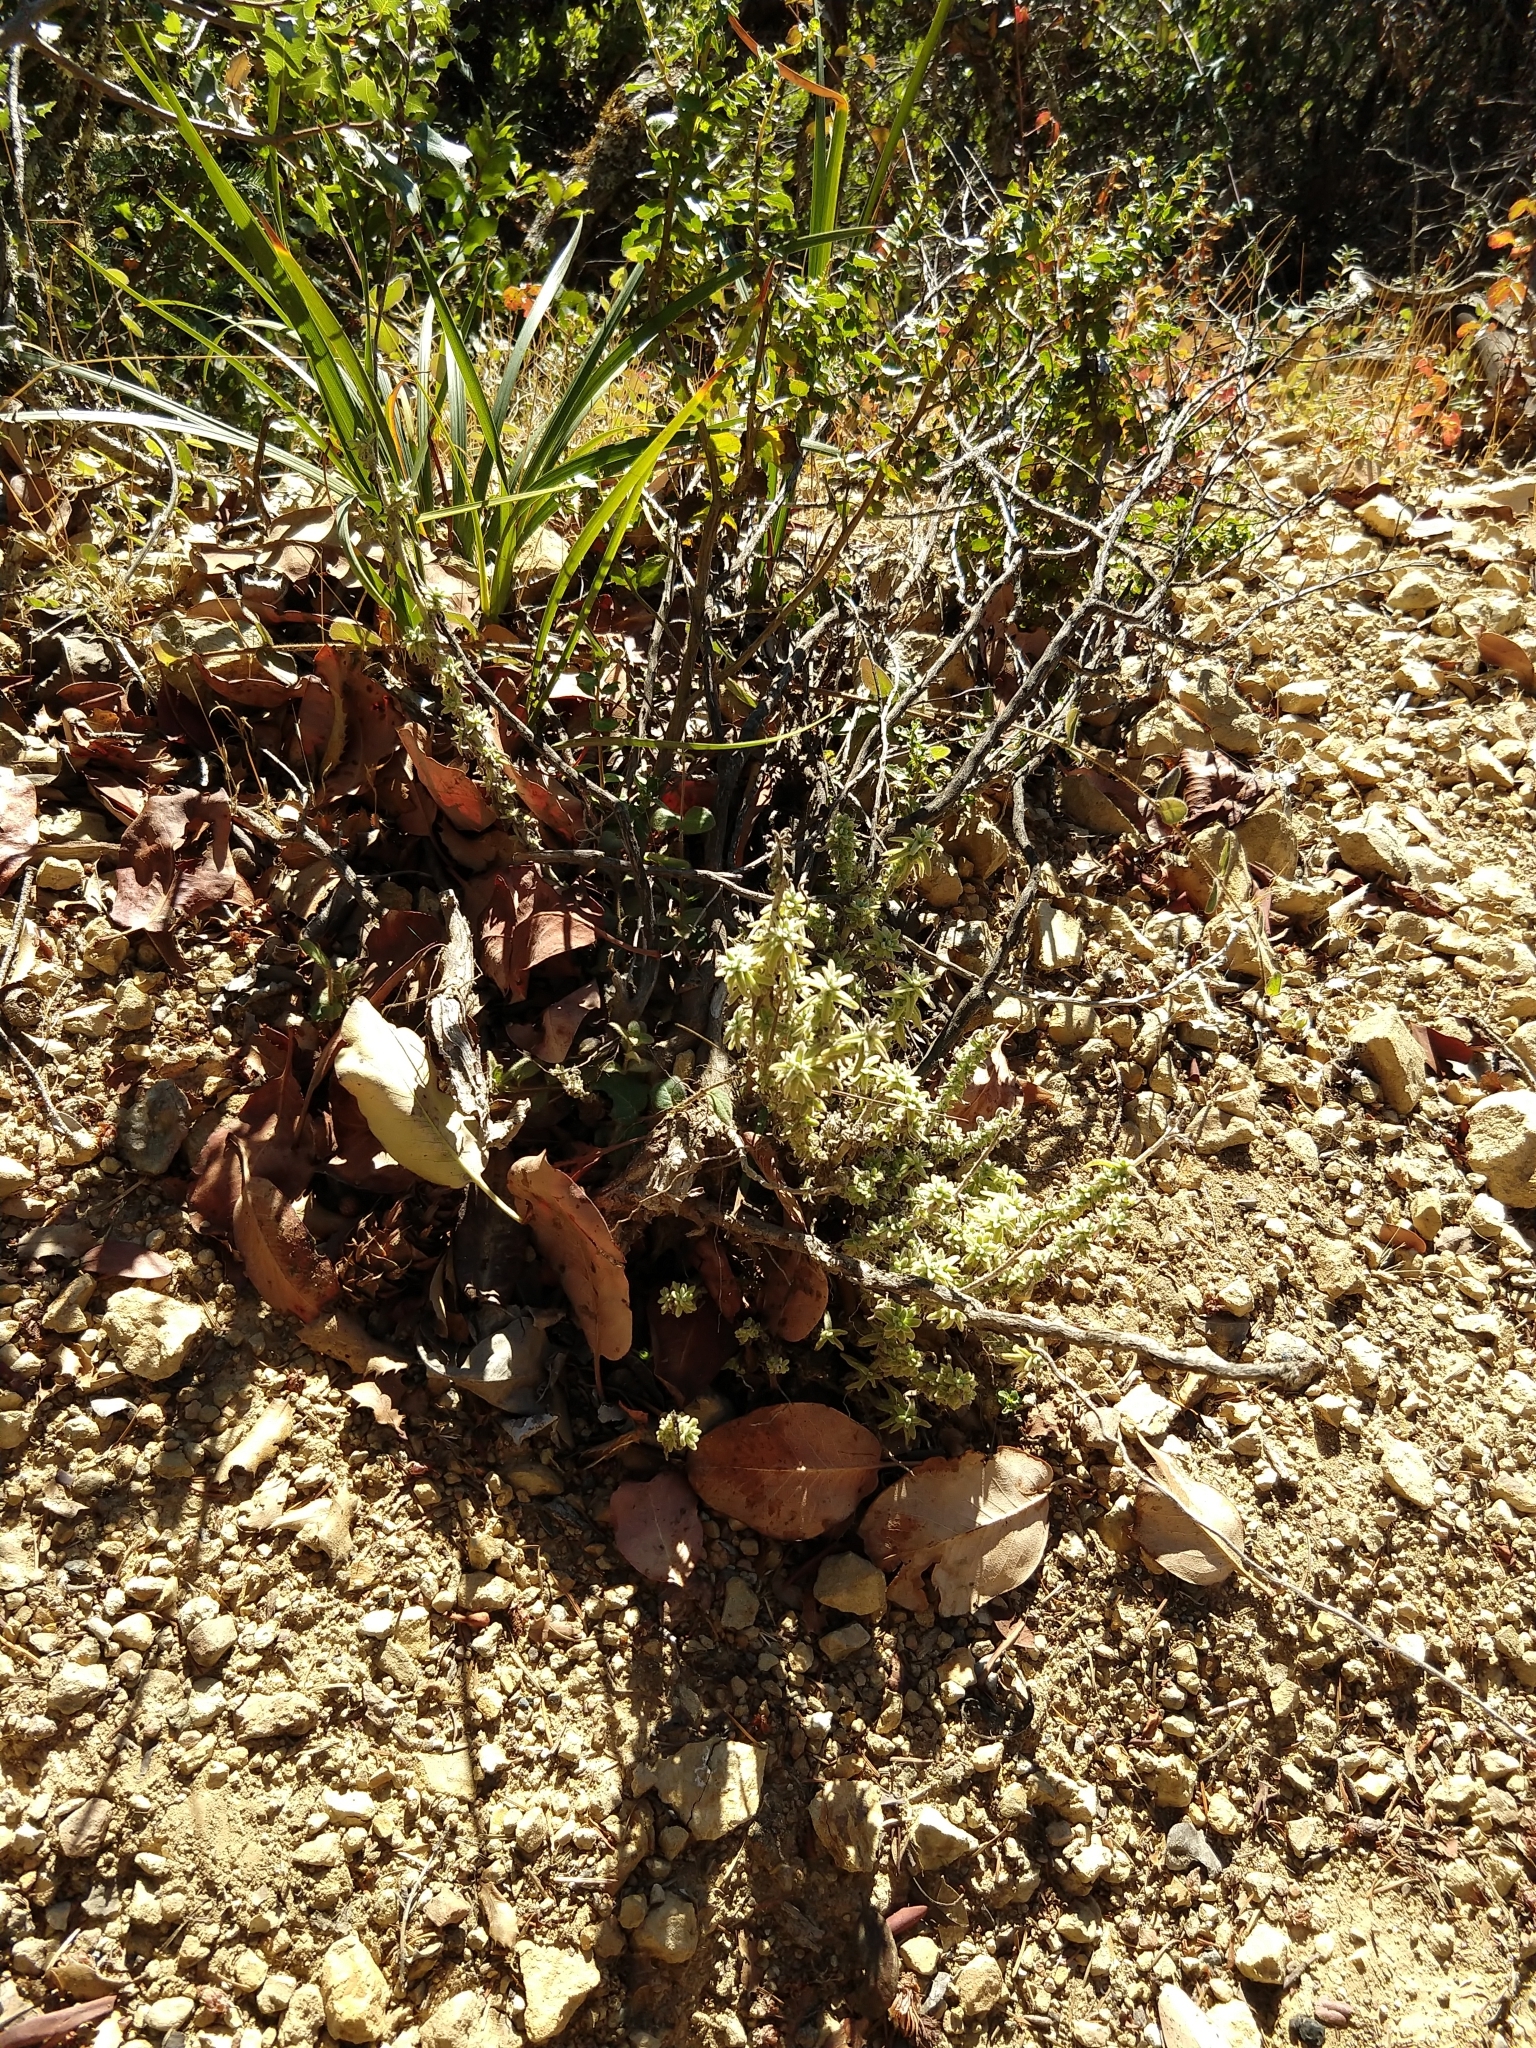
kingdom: Plantae
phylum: Tracheophyta
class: Magnoliopsida
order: Lamiales
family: Orobanchaceae
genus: Castilleja
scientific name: Castilleja foliolosa
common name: Woolly indian paintbrush
